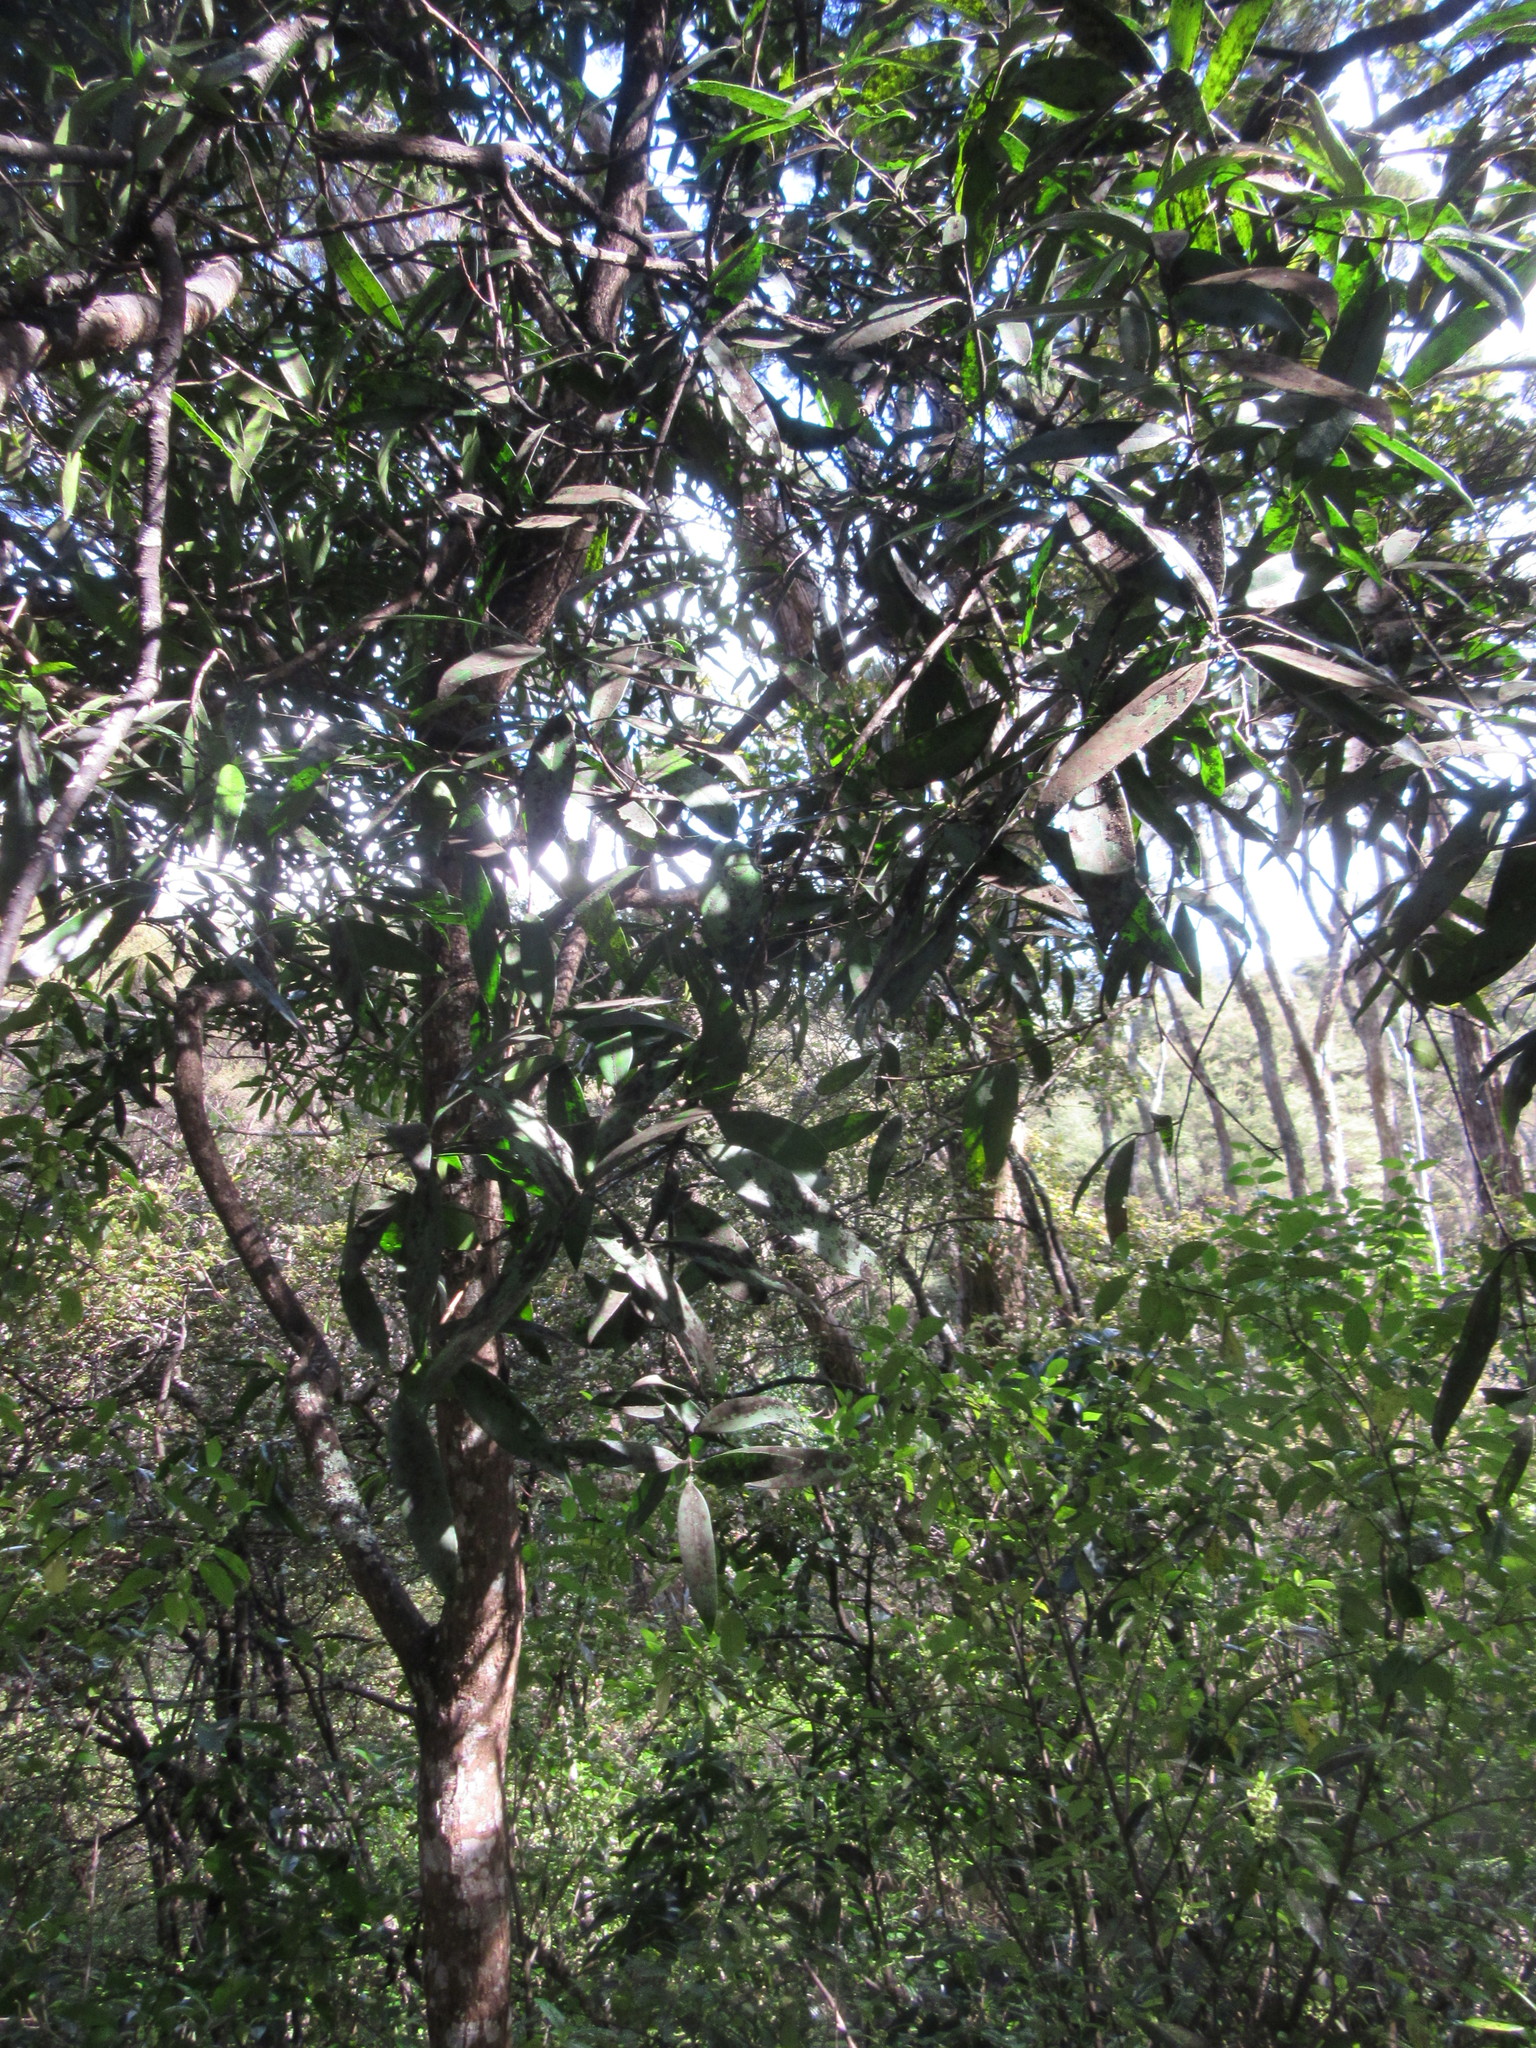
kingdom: Plantae
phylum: Tracheophyta
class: Magnoliopsida
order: Lamiales
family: Oleaceae
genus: Nestegis
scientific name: Nestegis lanceolata
